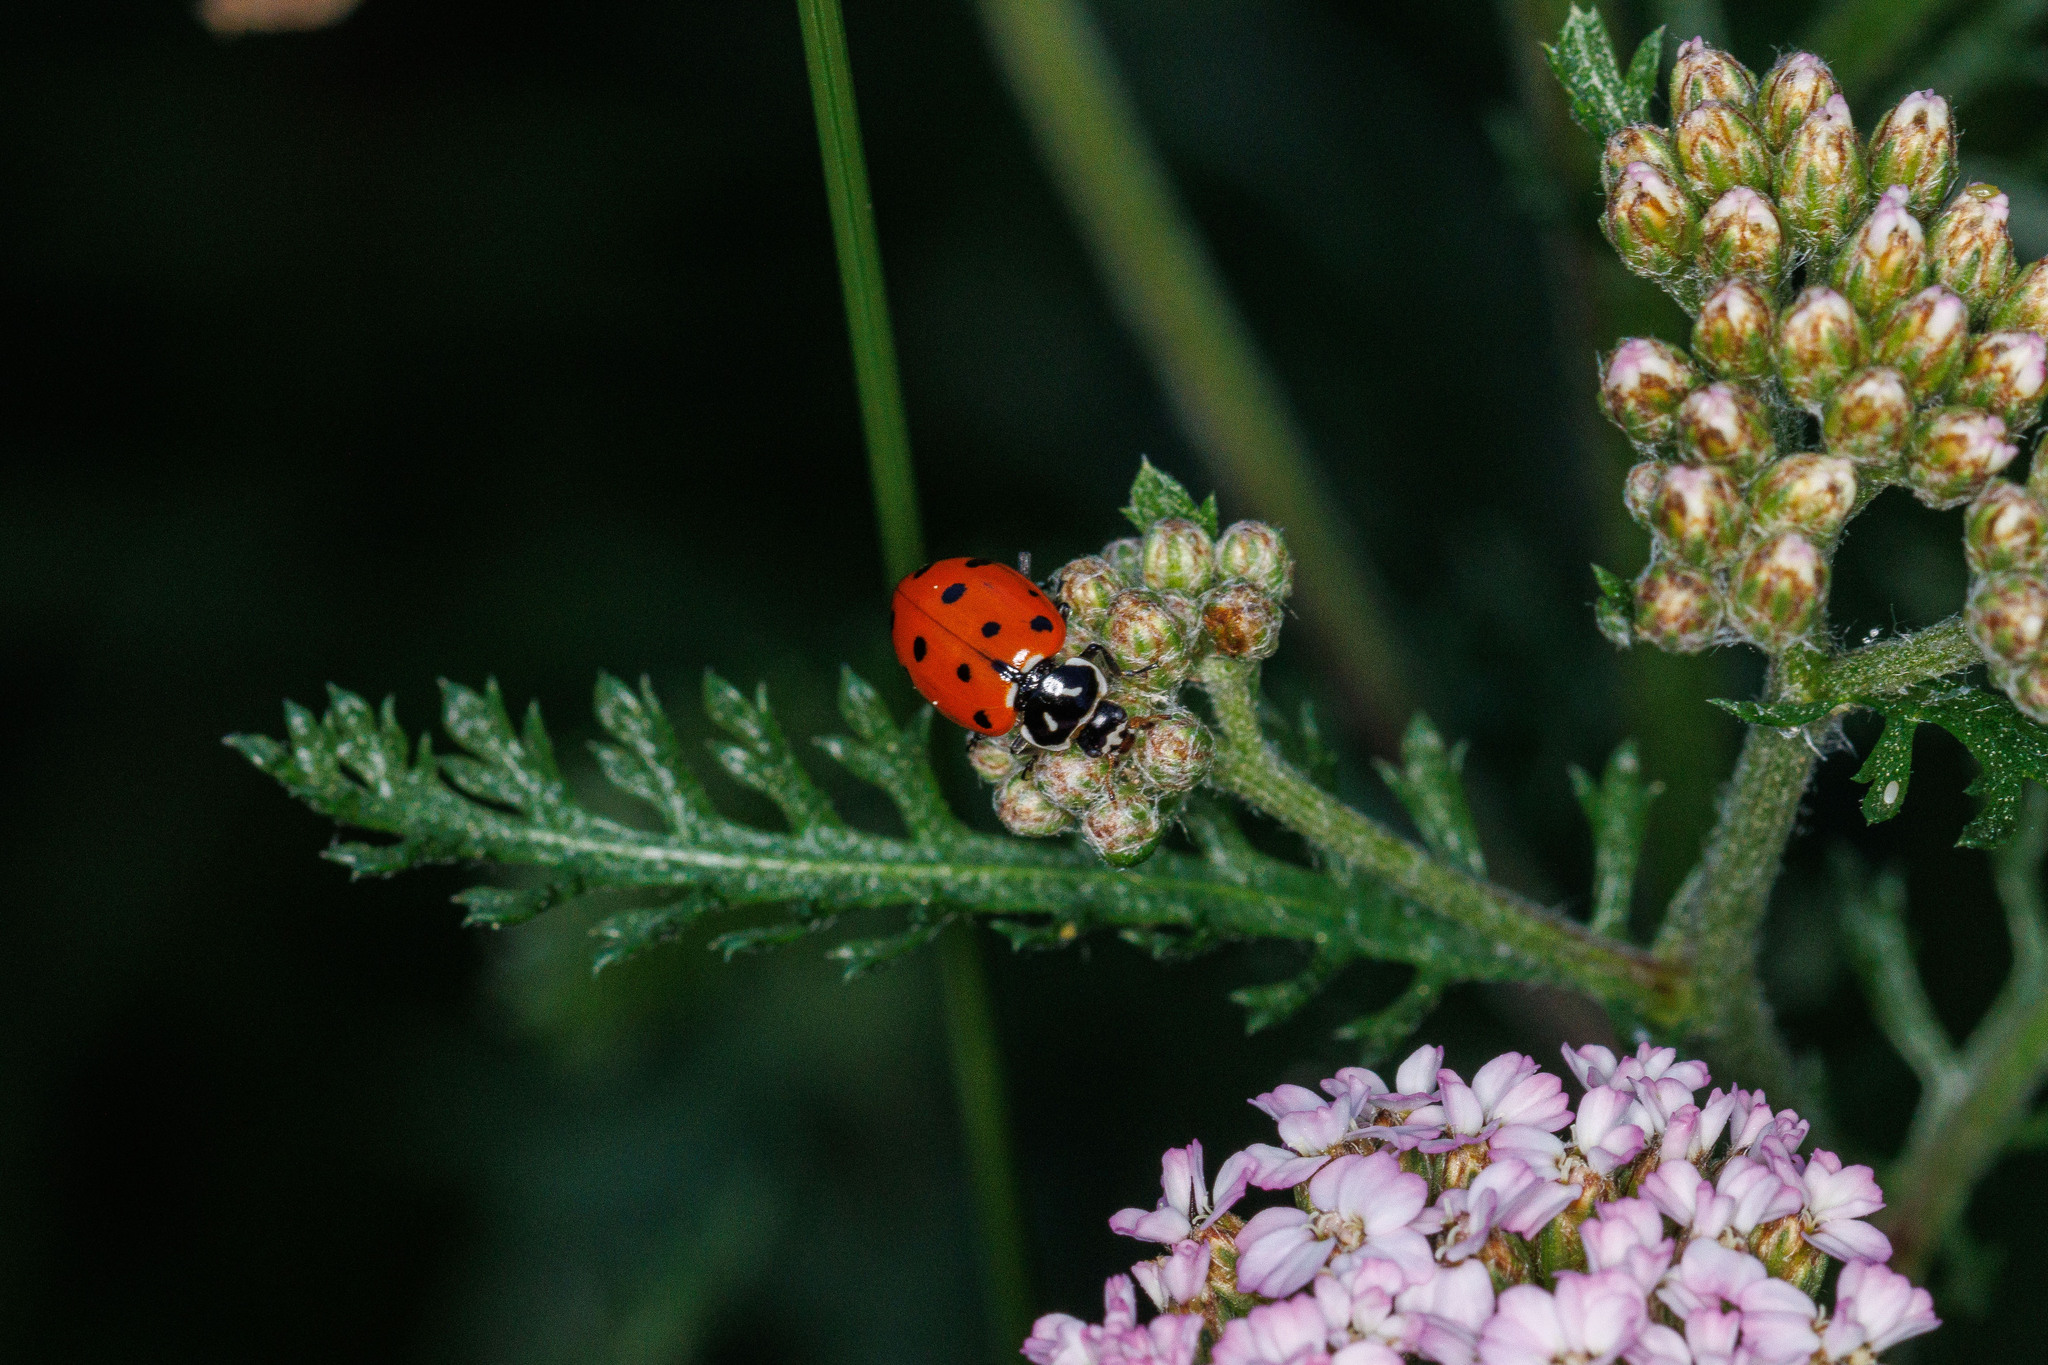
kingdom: Animalia
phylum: Arthropoda
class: Insecta
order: Coleoptera
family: Coccinellidae
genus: Hippodamia
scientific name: Hippodamia convergens
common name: Convergent lady beetle
